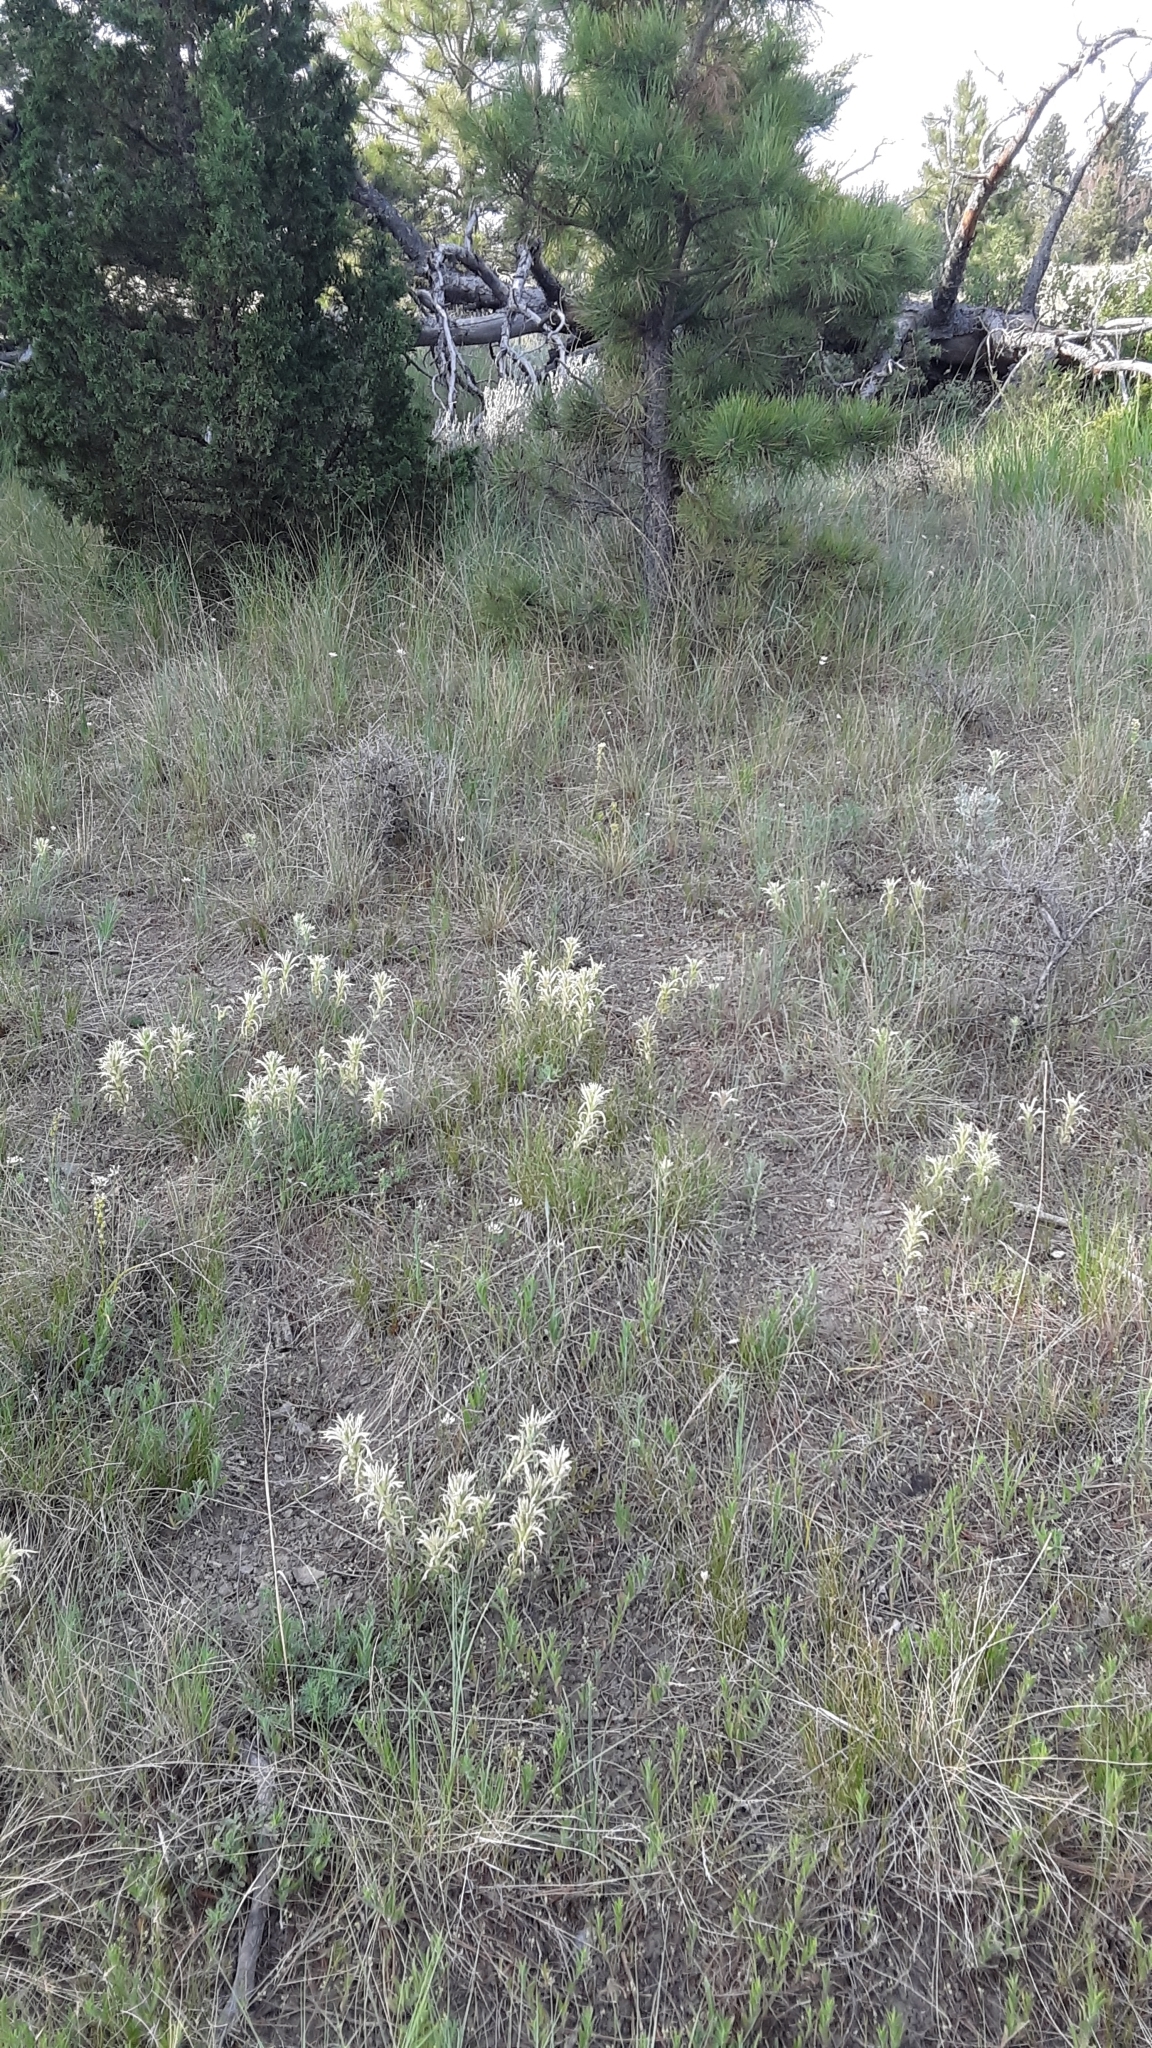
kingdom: Plantae
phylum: Tracheophyta
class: Magnoliopsida
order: Lamiales
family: Orobanchaceae
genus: Castilleja
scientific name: Castilleja sessiliflora
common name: Downy paintbrush
